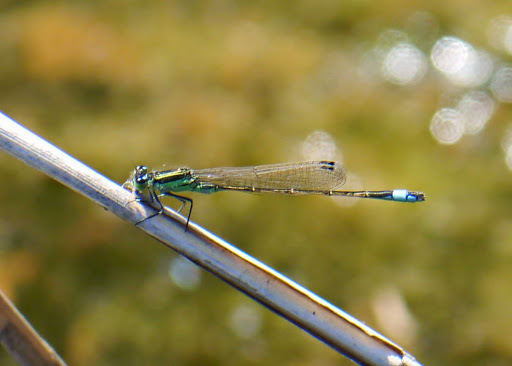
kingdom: Animalia
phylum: Arthropoda
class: Insecta
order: Odonata
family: Coenagrionidae
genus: Ischnura
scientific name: Ischnura ramburii
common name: Rambur's forktail
